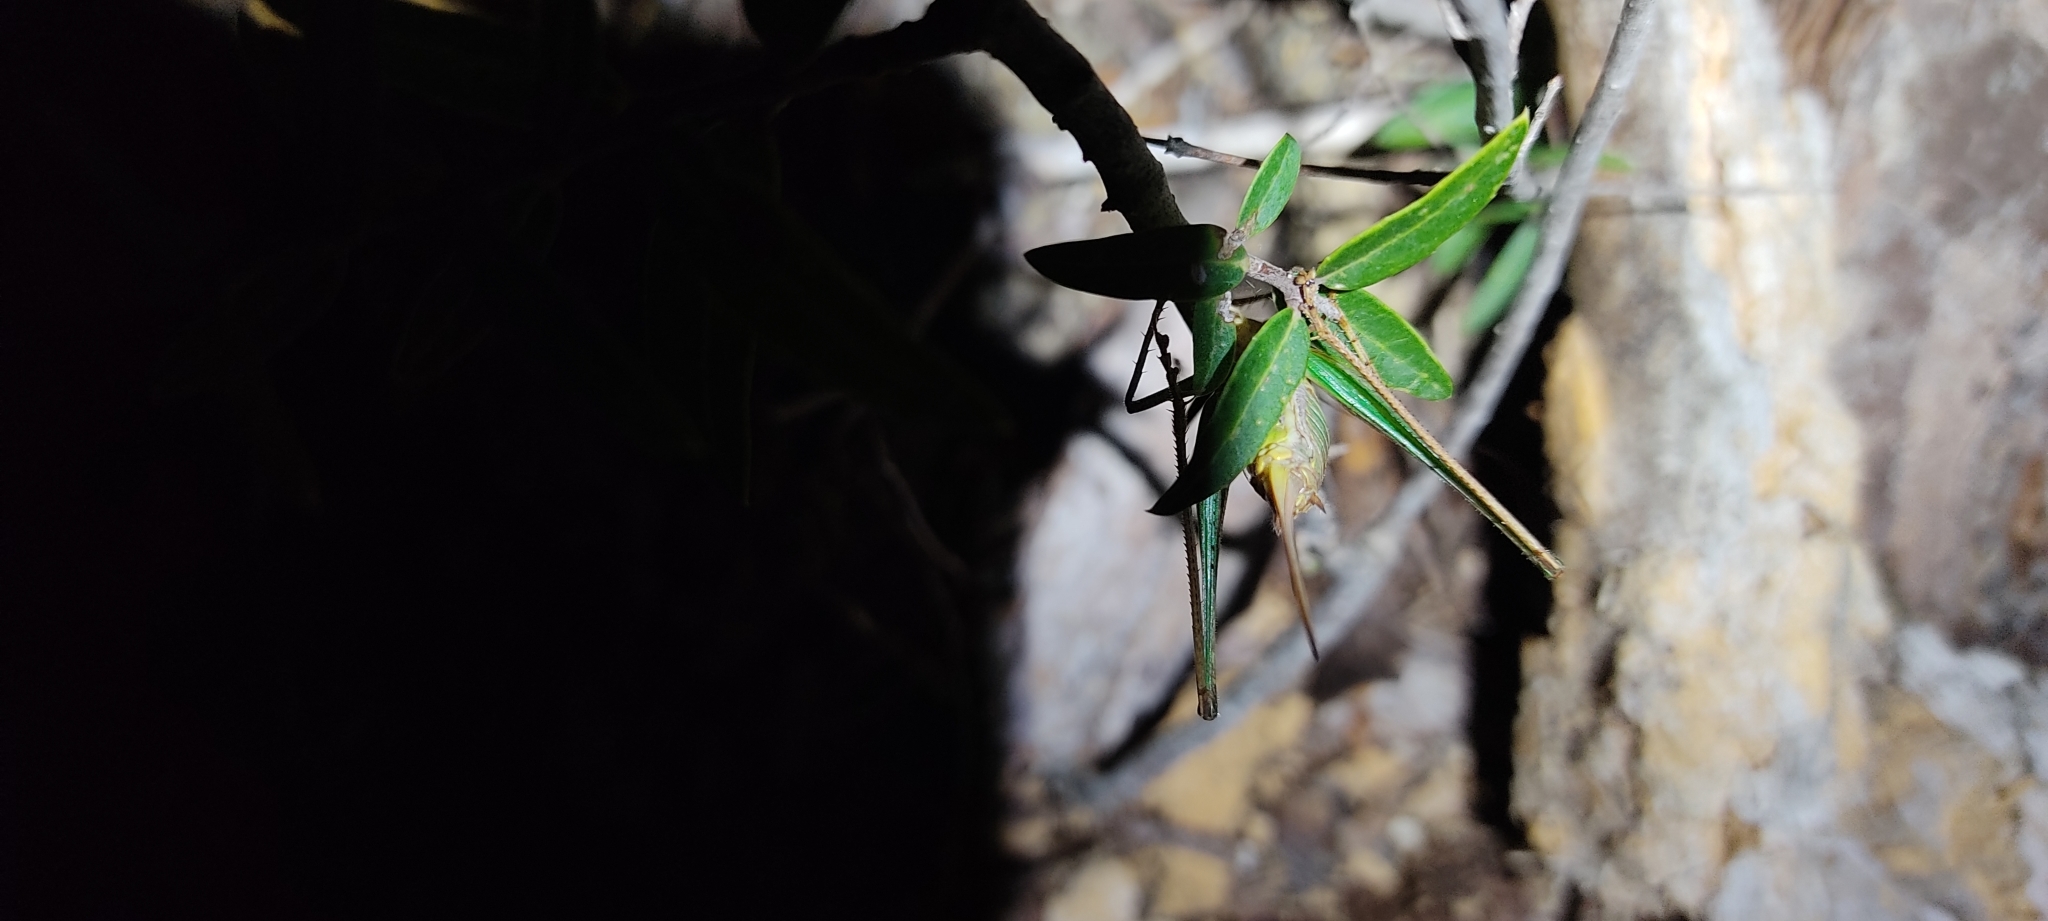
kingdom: Animalia
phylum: Arthropoda
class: Insecta
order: Orthoptera
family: Tettigoniidae
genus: Rhacocleis
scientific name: Rhacocleis annulata
